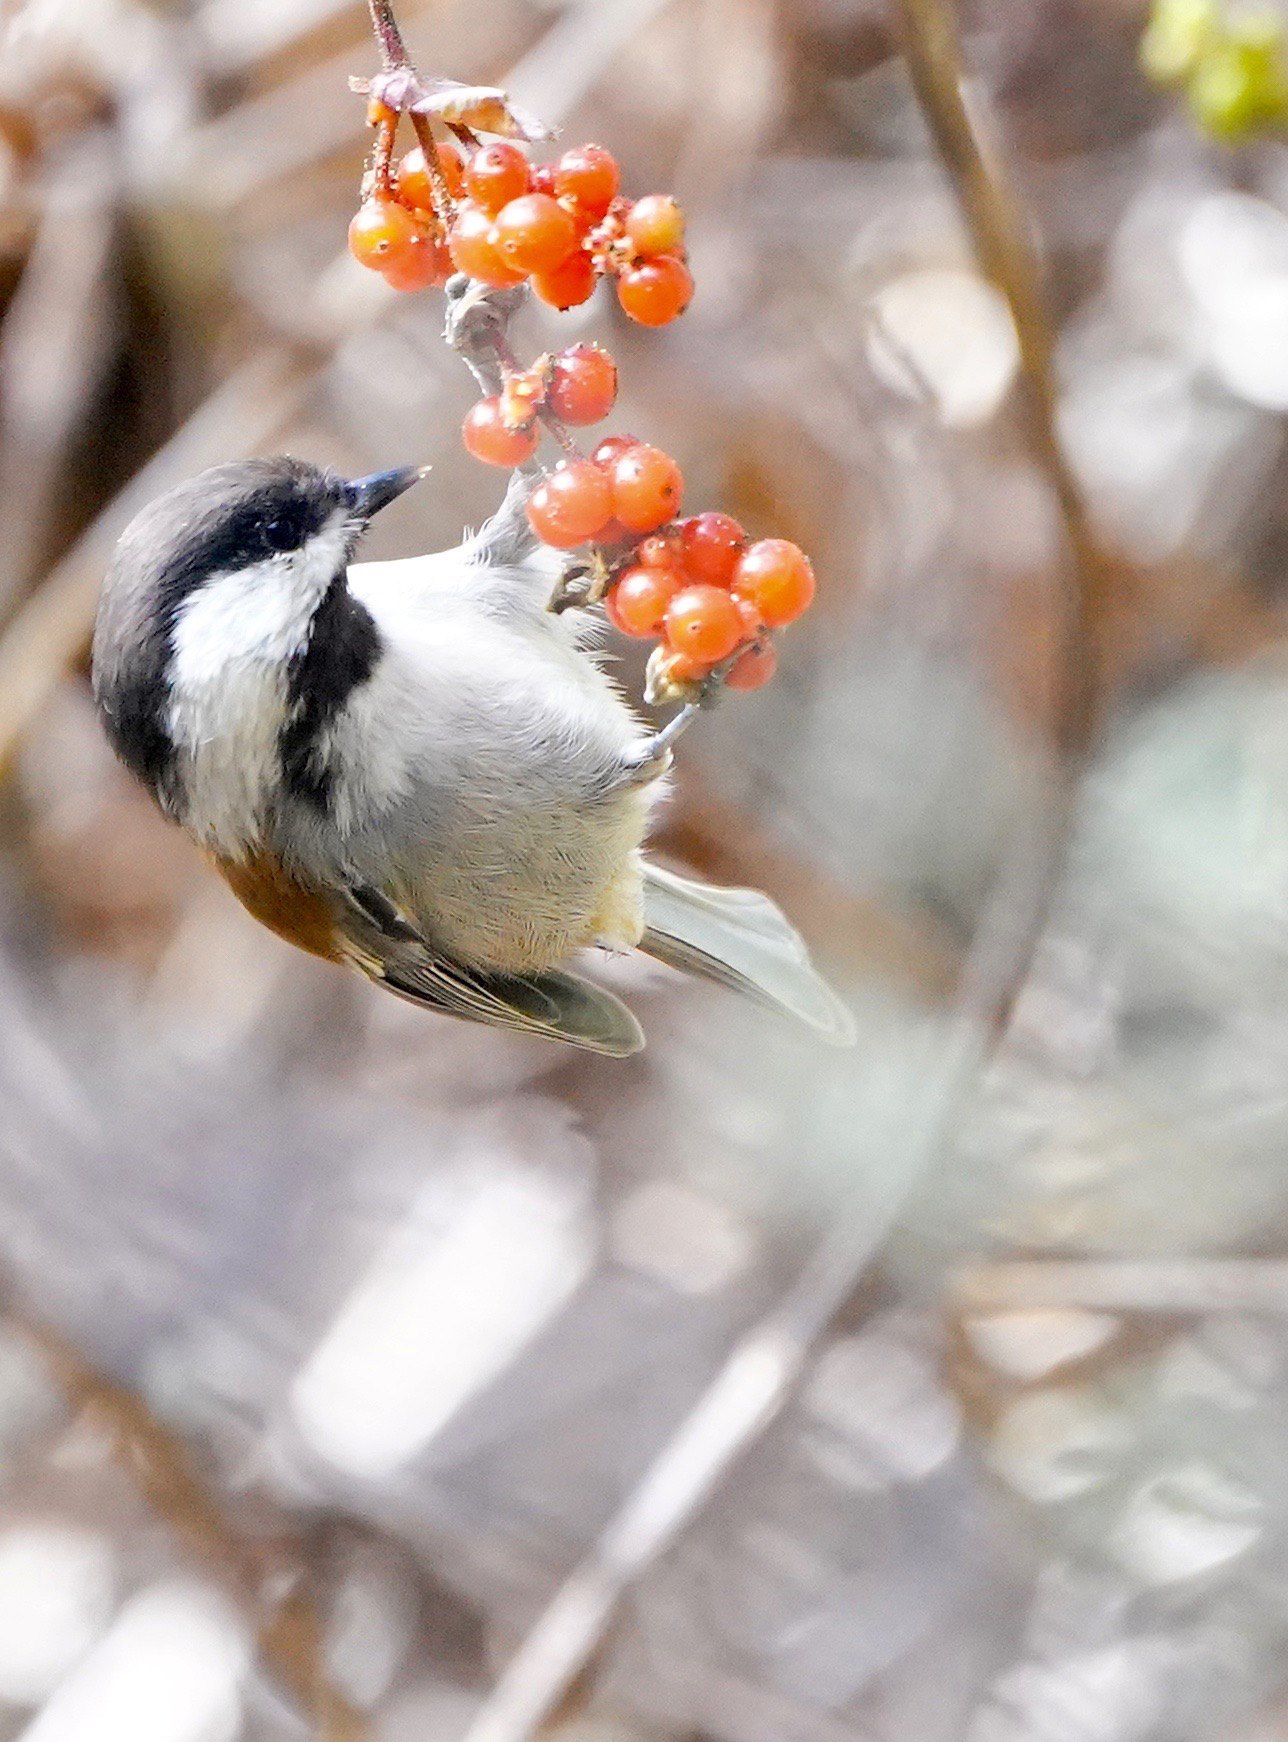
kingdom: Animalia
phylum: Chordata
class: Aves
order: Passeriformes
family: Paridae
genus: Poecile
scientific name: Poecile rufescens
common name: Chestnut-backed chickadee
